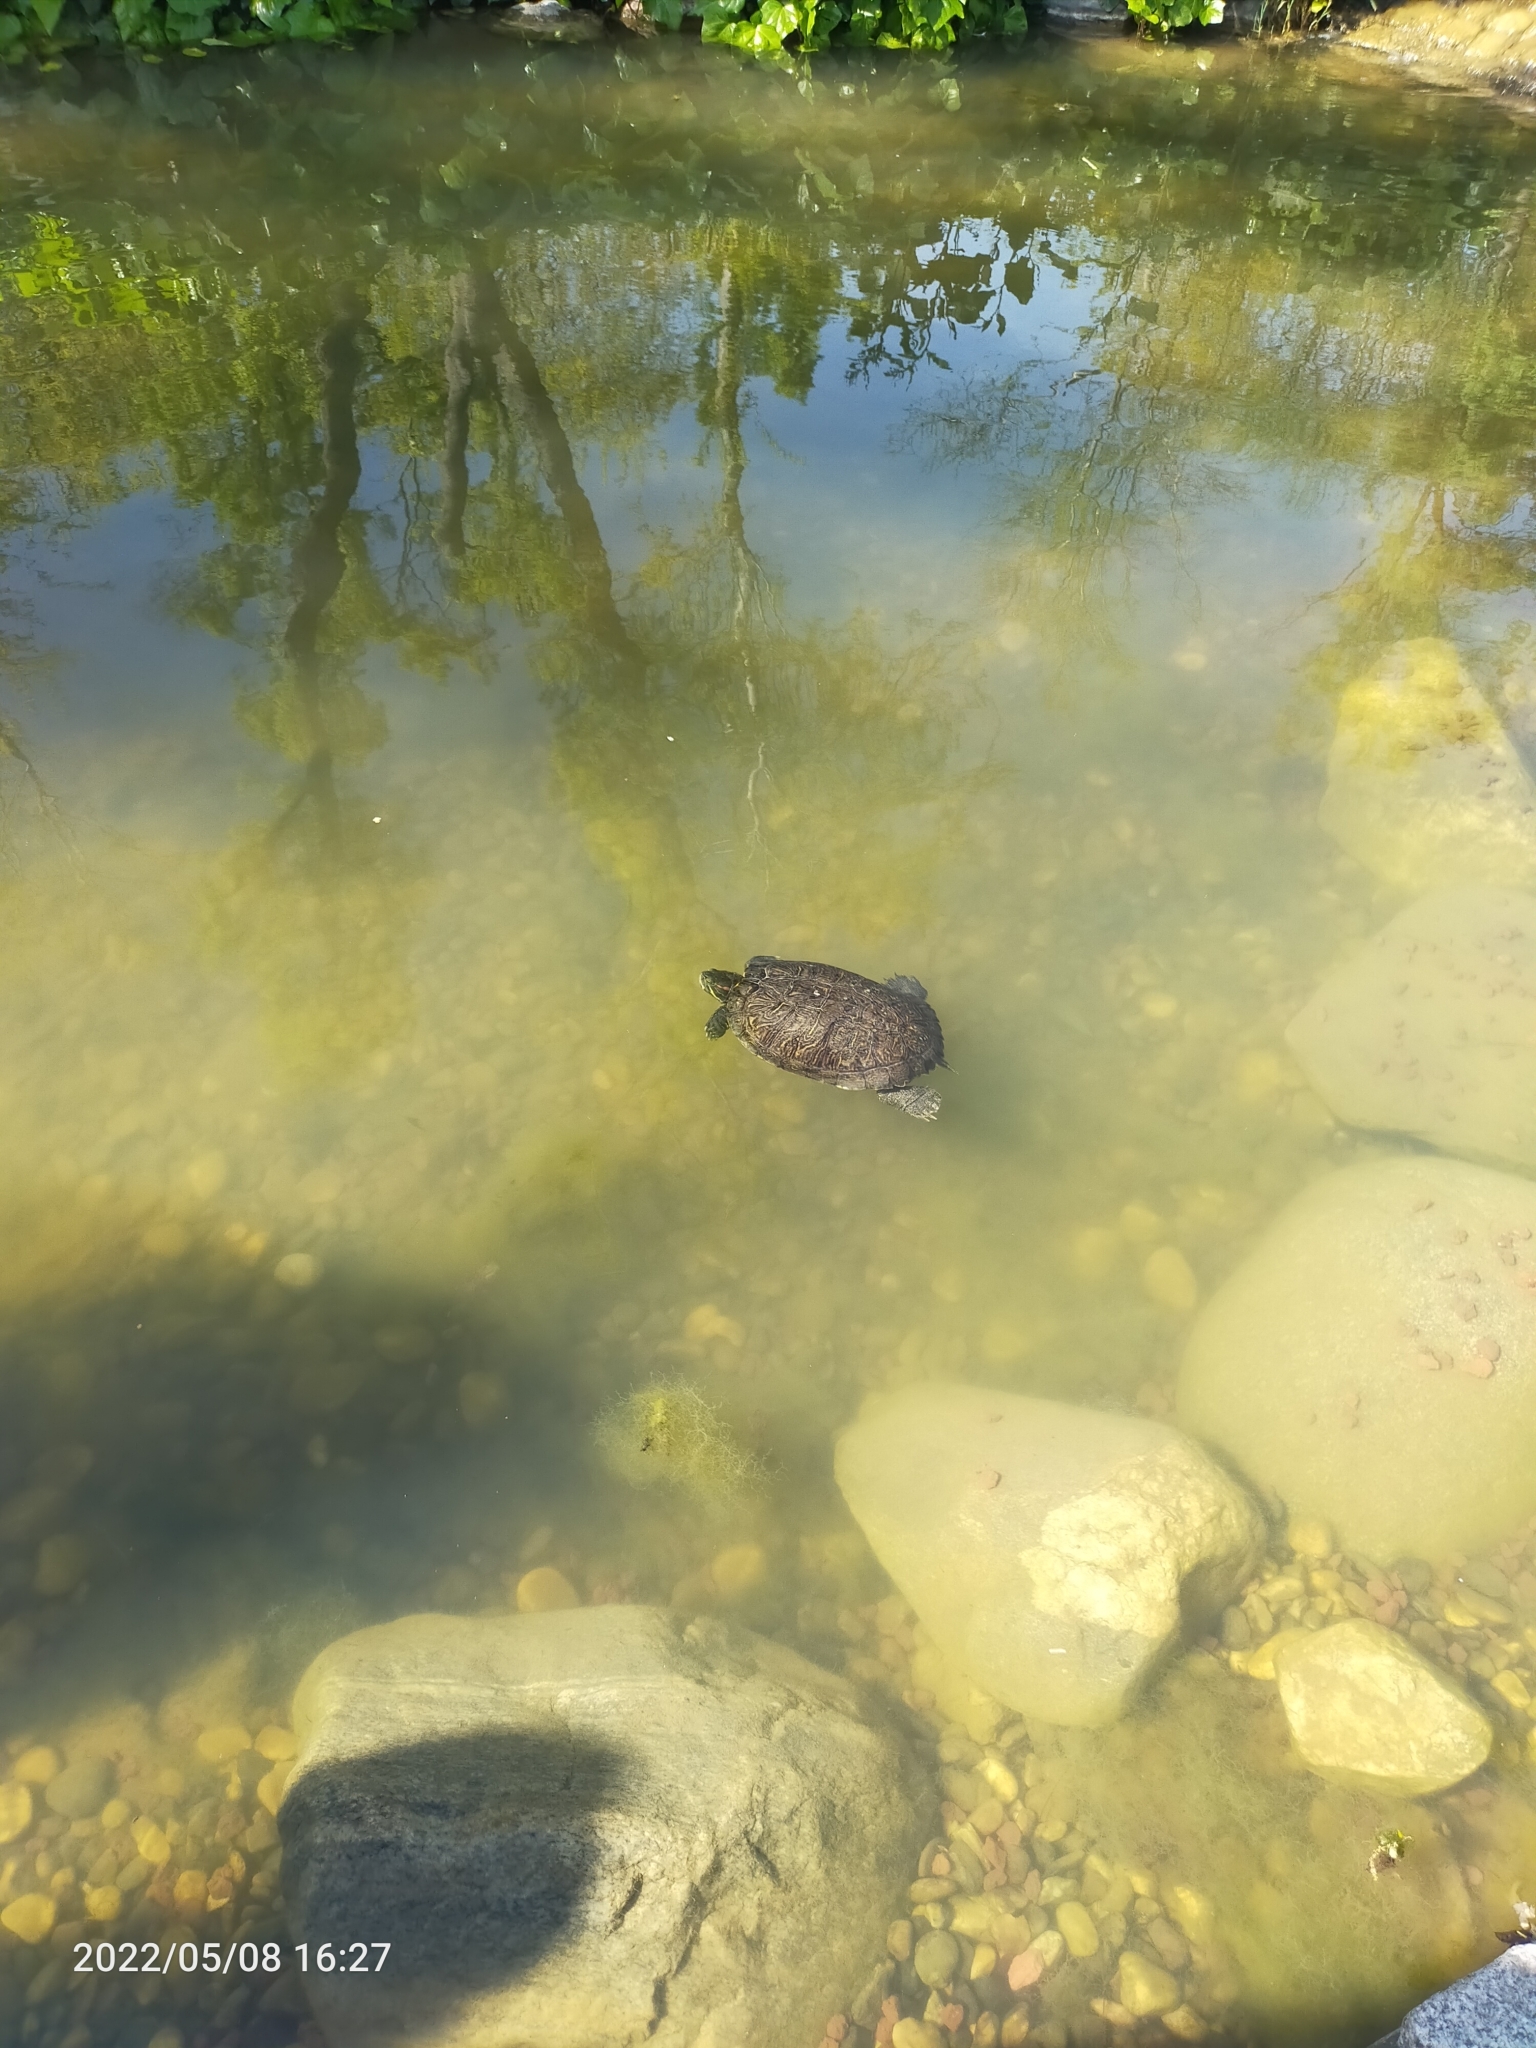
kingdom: Animalia
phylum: Chordata
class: Testudines
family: Emydidae
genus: Trachemys
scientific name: Trachemys scripta
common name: Slider
